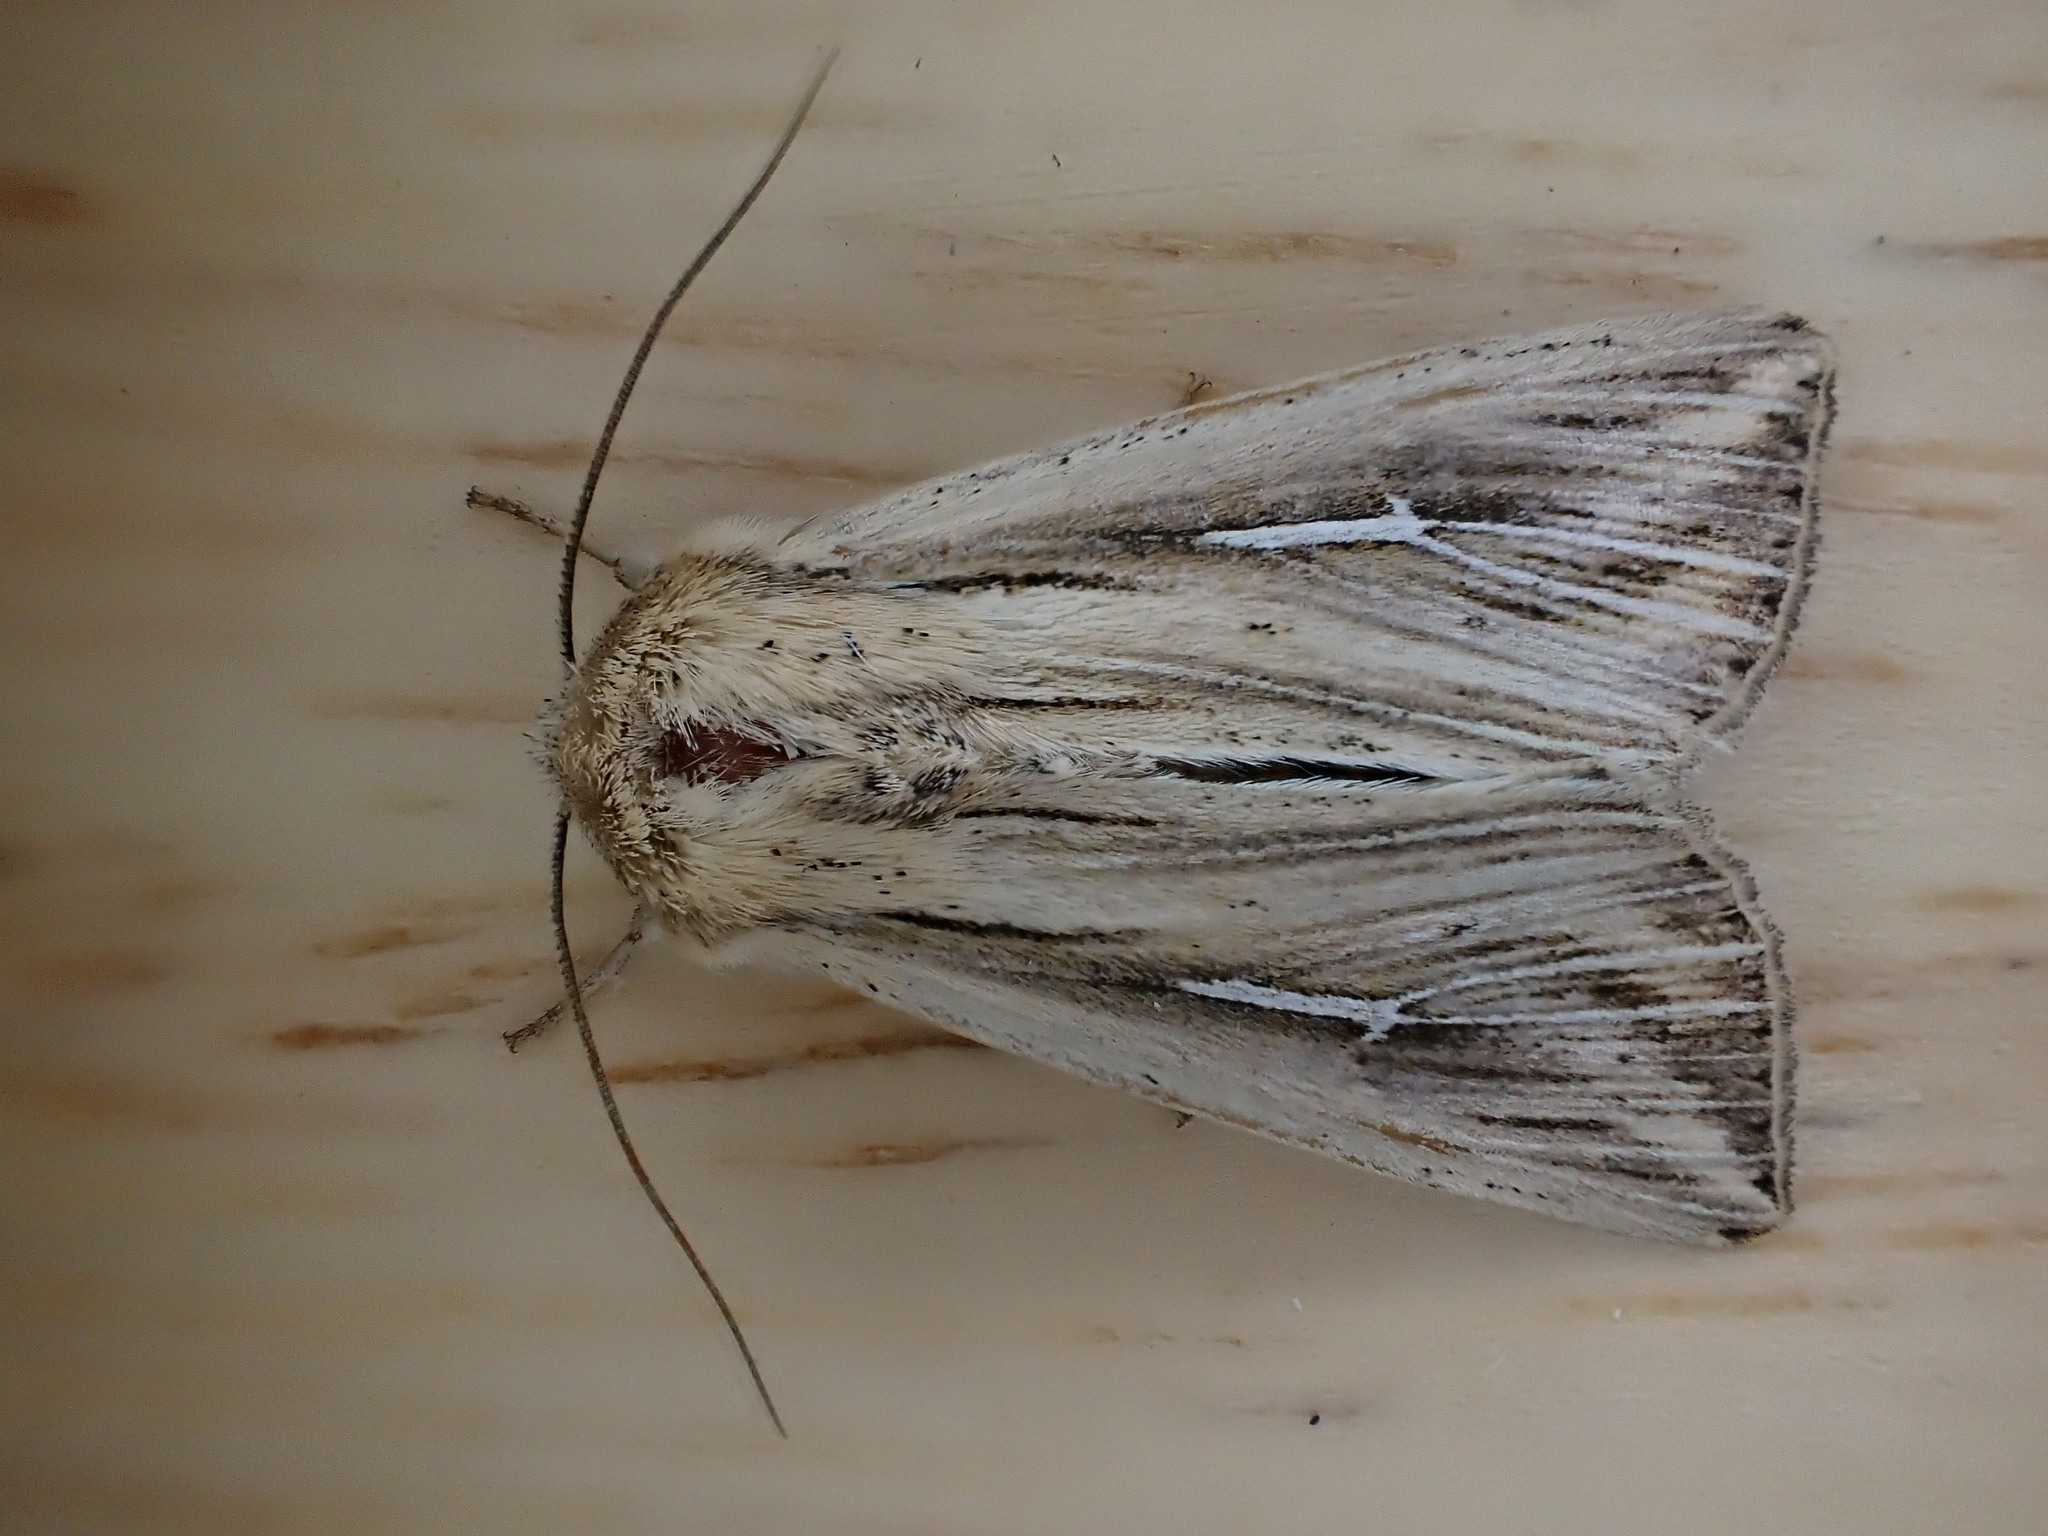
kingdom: Animalia
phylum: Arthropoda
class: Insecta
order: Lepidoptera
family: Noctuidae
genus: Mythimna
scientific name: Mythimna l-album
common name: L-album wainscot
